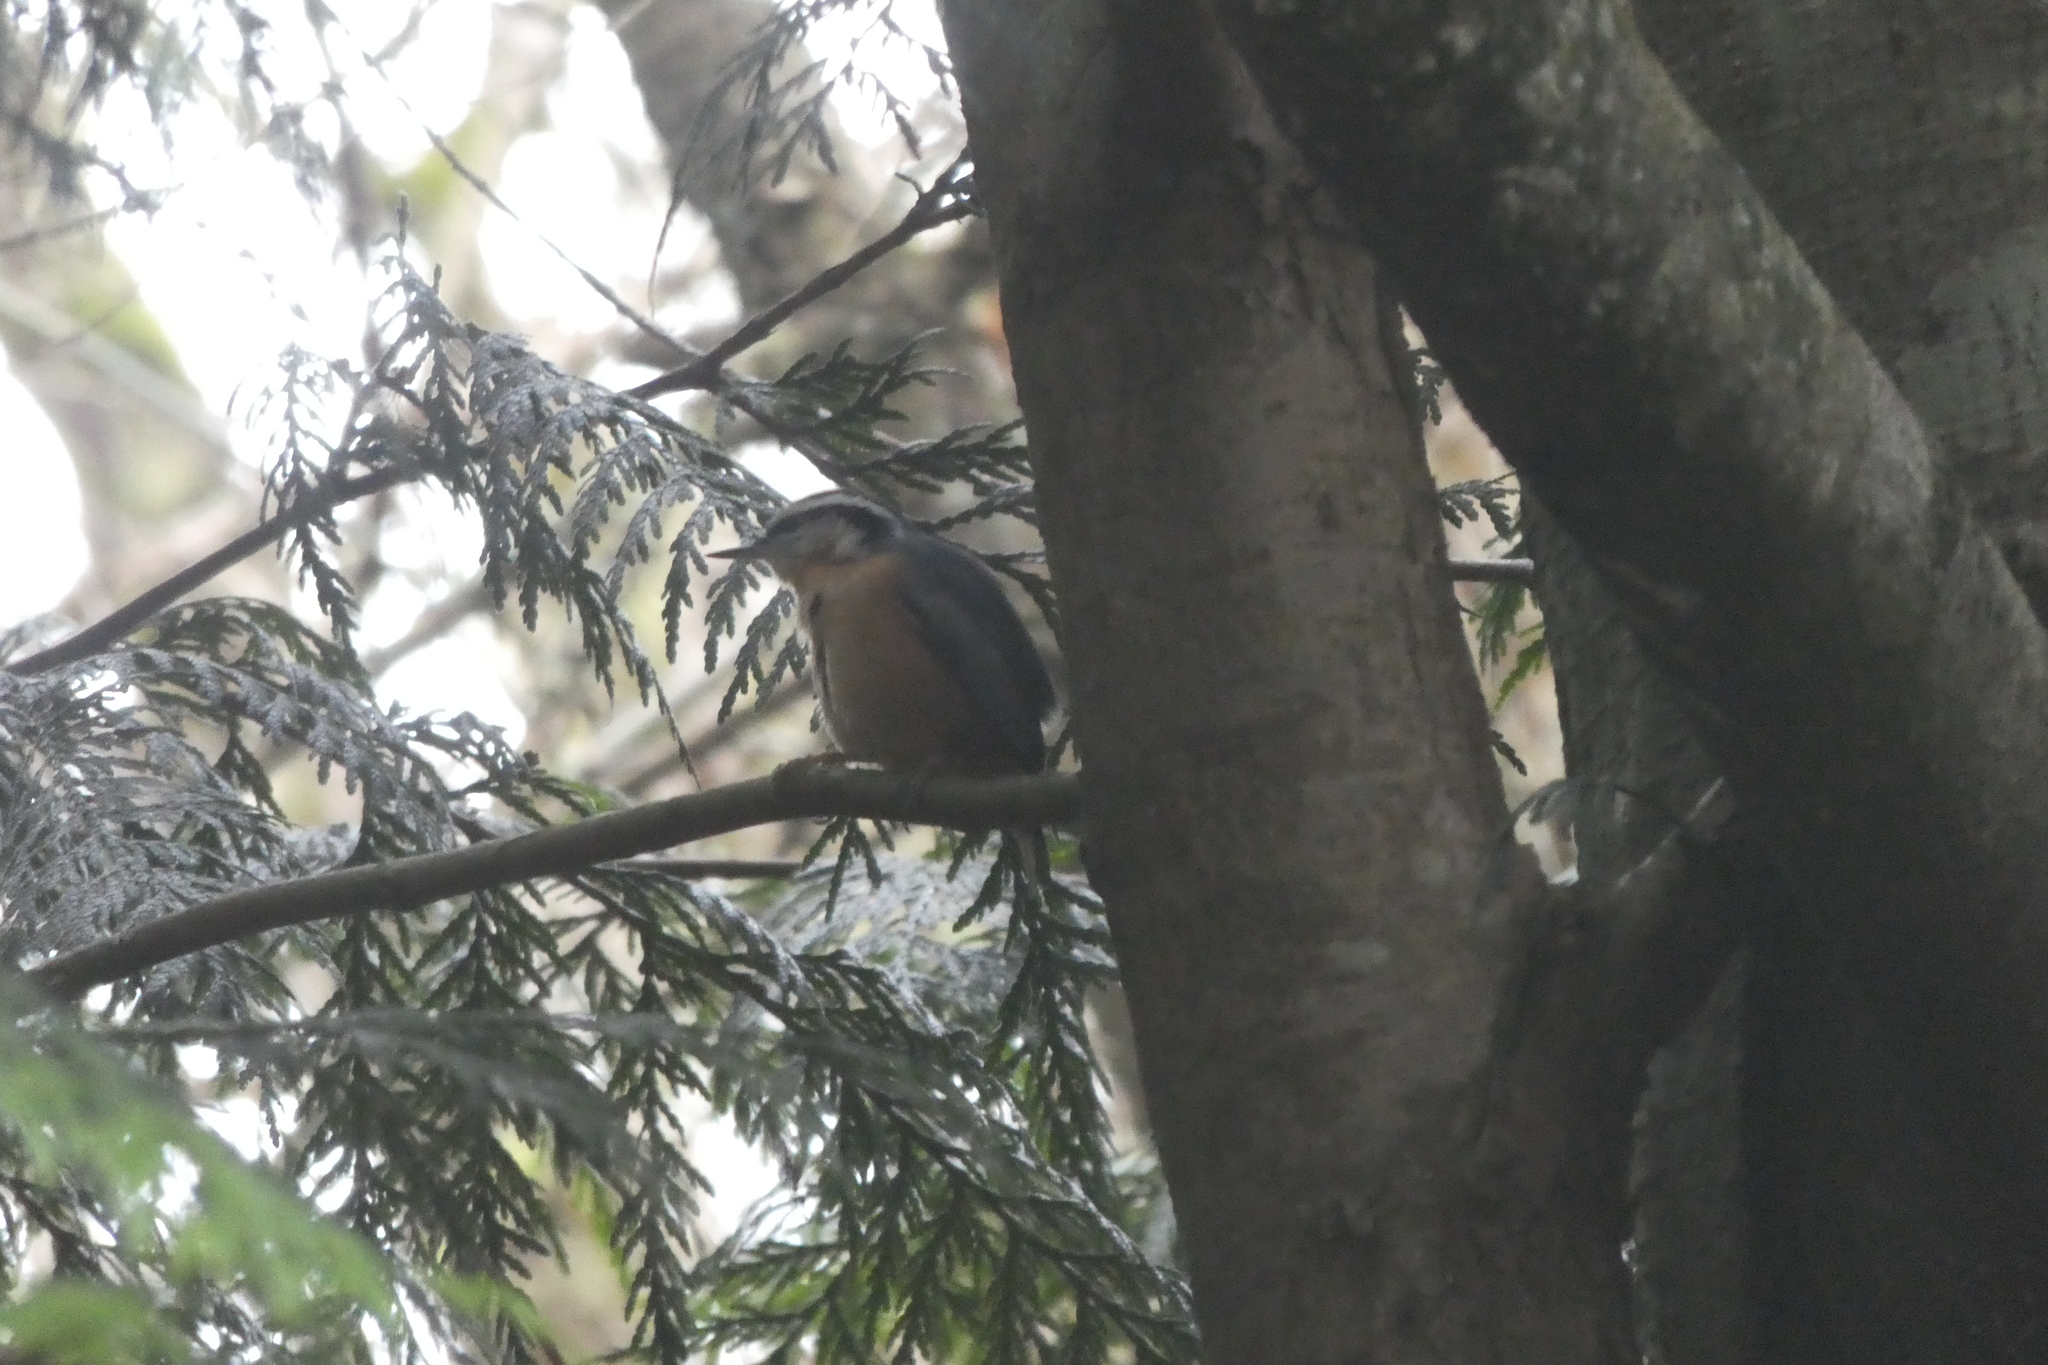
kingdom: Animalia
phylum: Chordata
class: Aves
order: Passeriformes
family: Sittidae
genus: Sitta
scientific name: Sitta canadensis
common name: Red-breasted nuthatch
